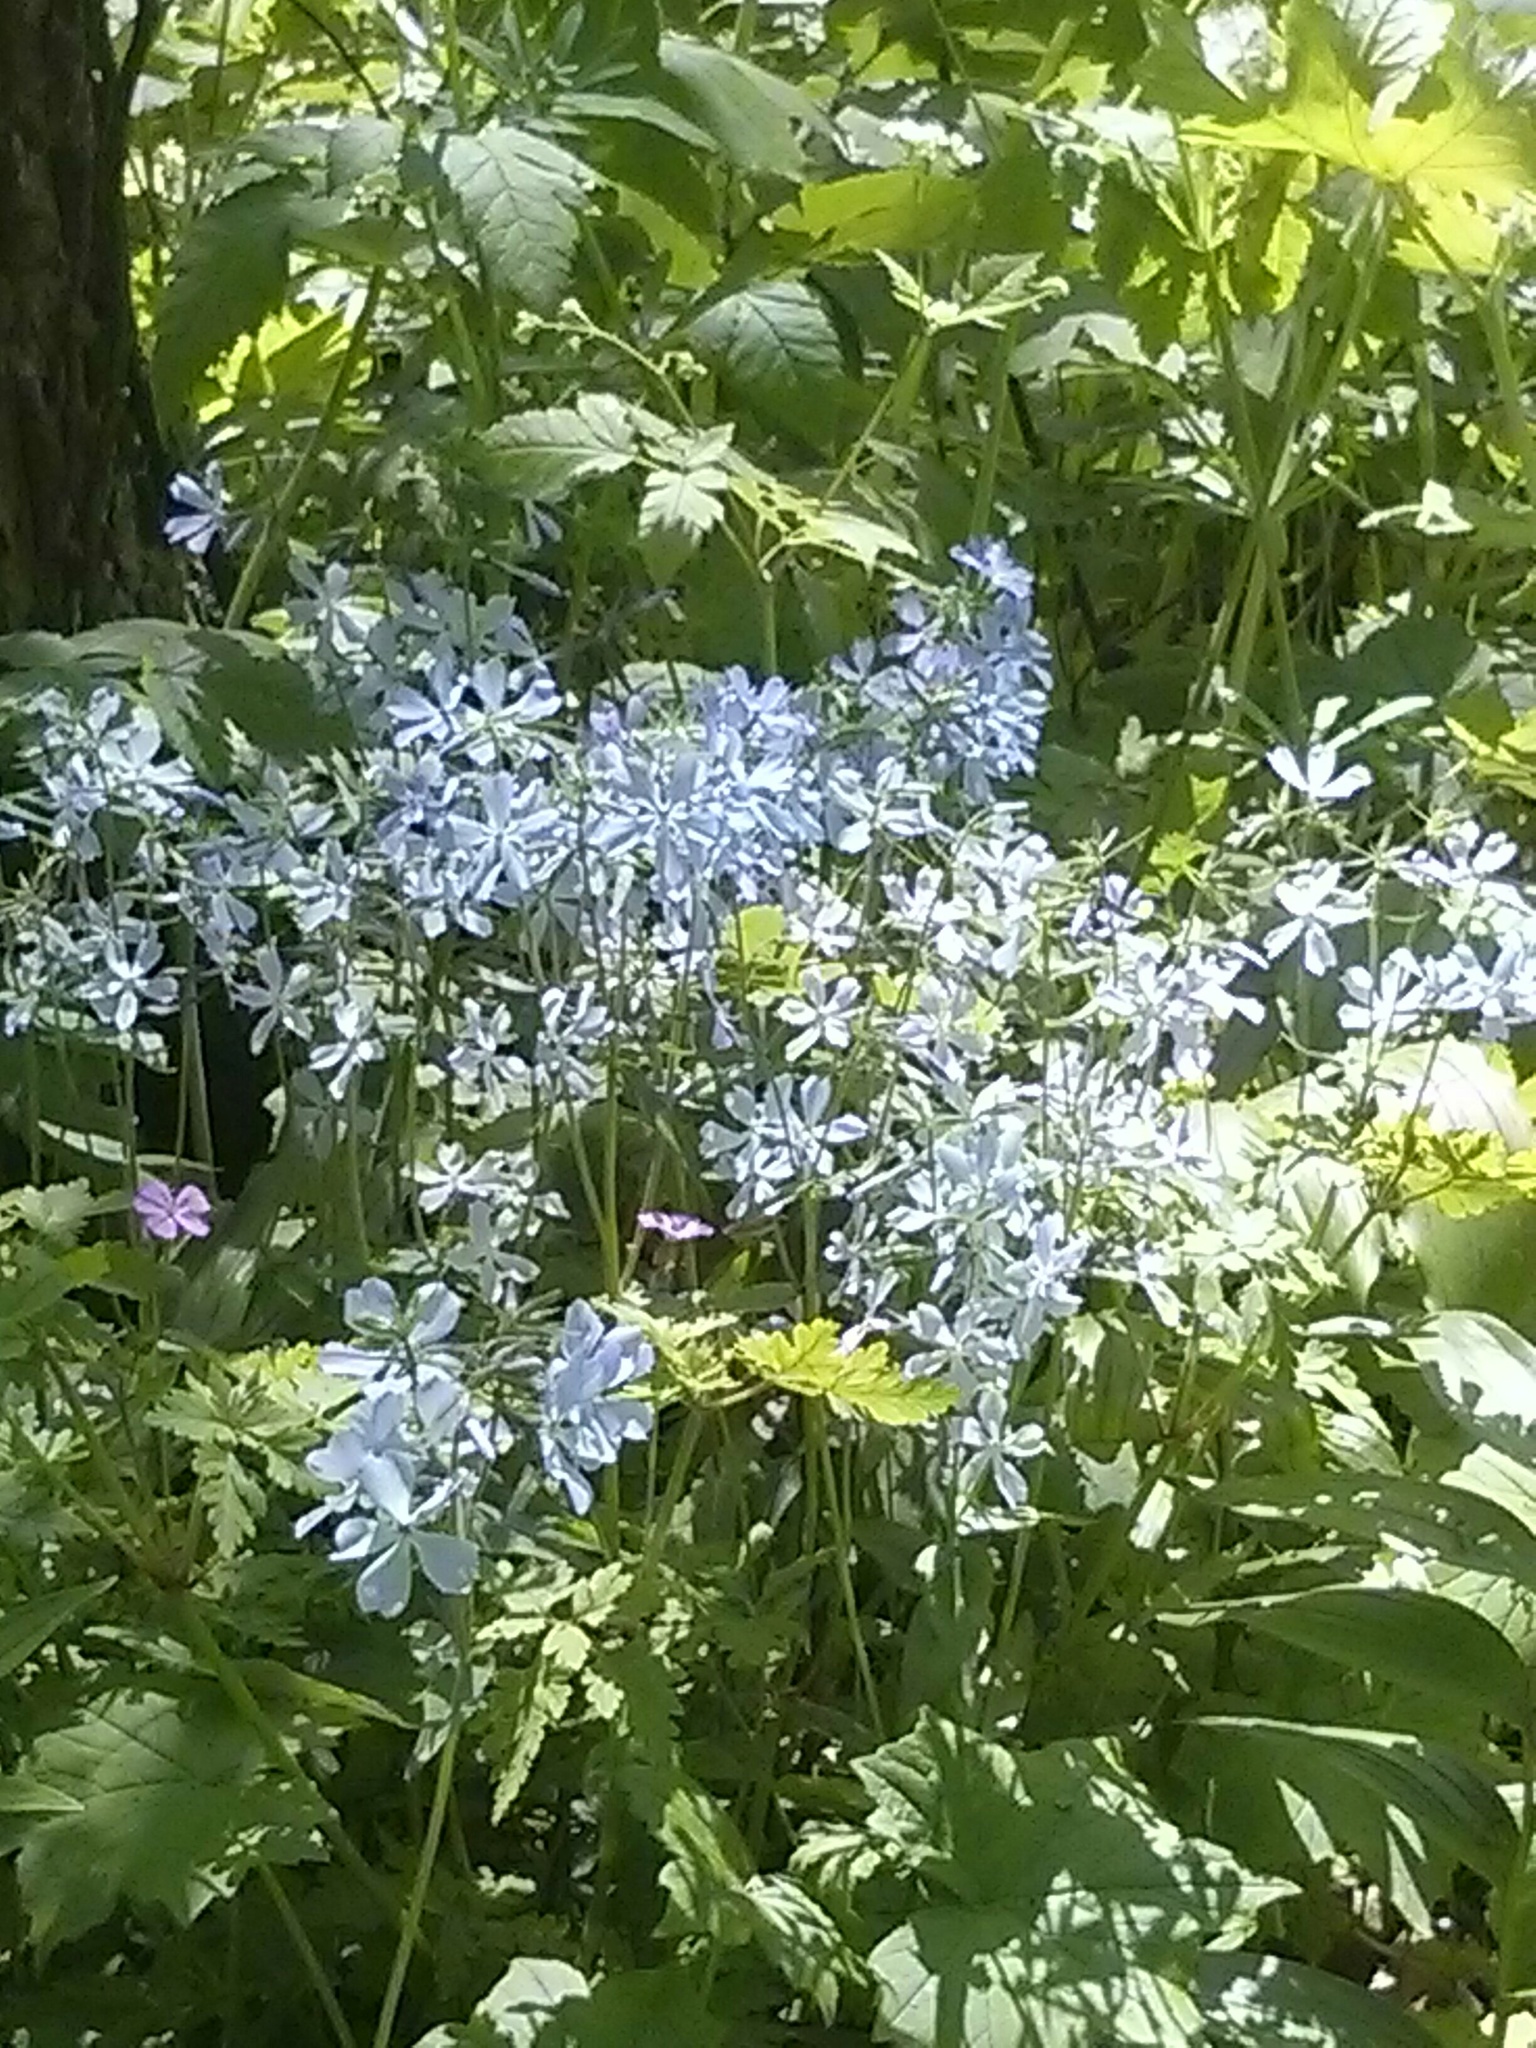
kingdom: Plantae
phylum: Tracheophyta
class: Magnoliopsida
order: Ericales
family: Polemoniaceae
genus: Phlox
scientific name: Phlox divaricata
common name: Blue phlox
